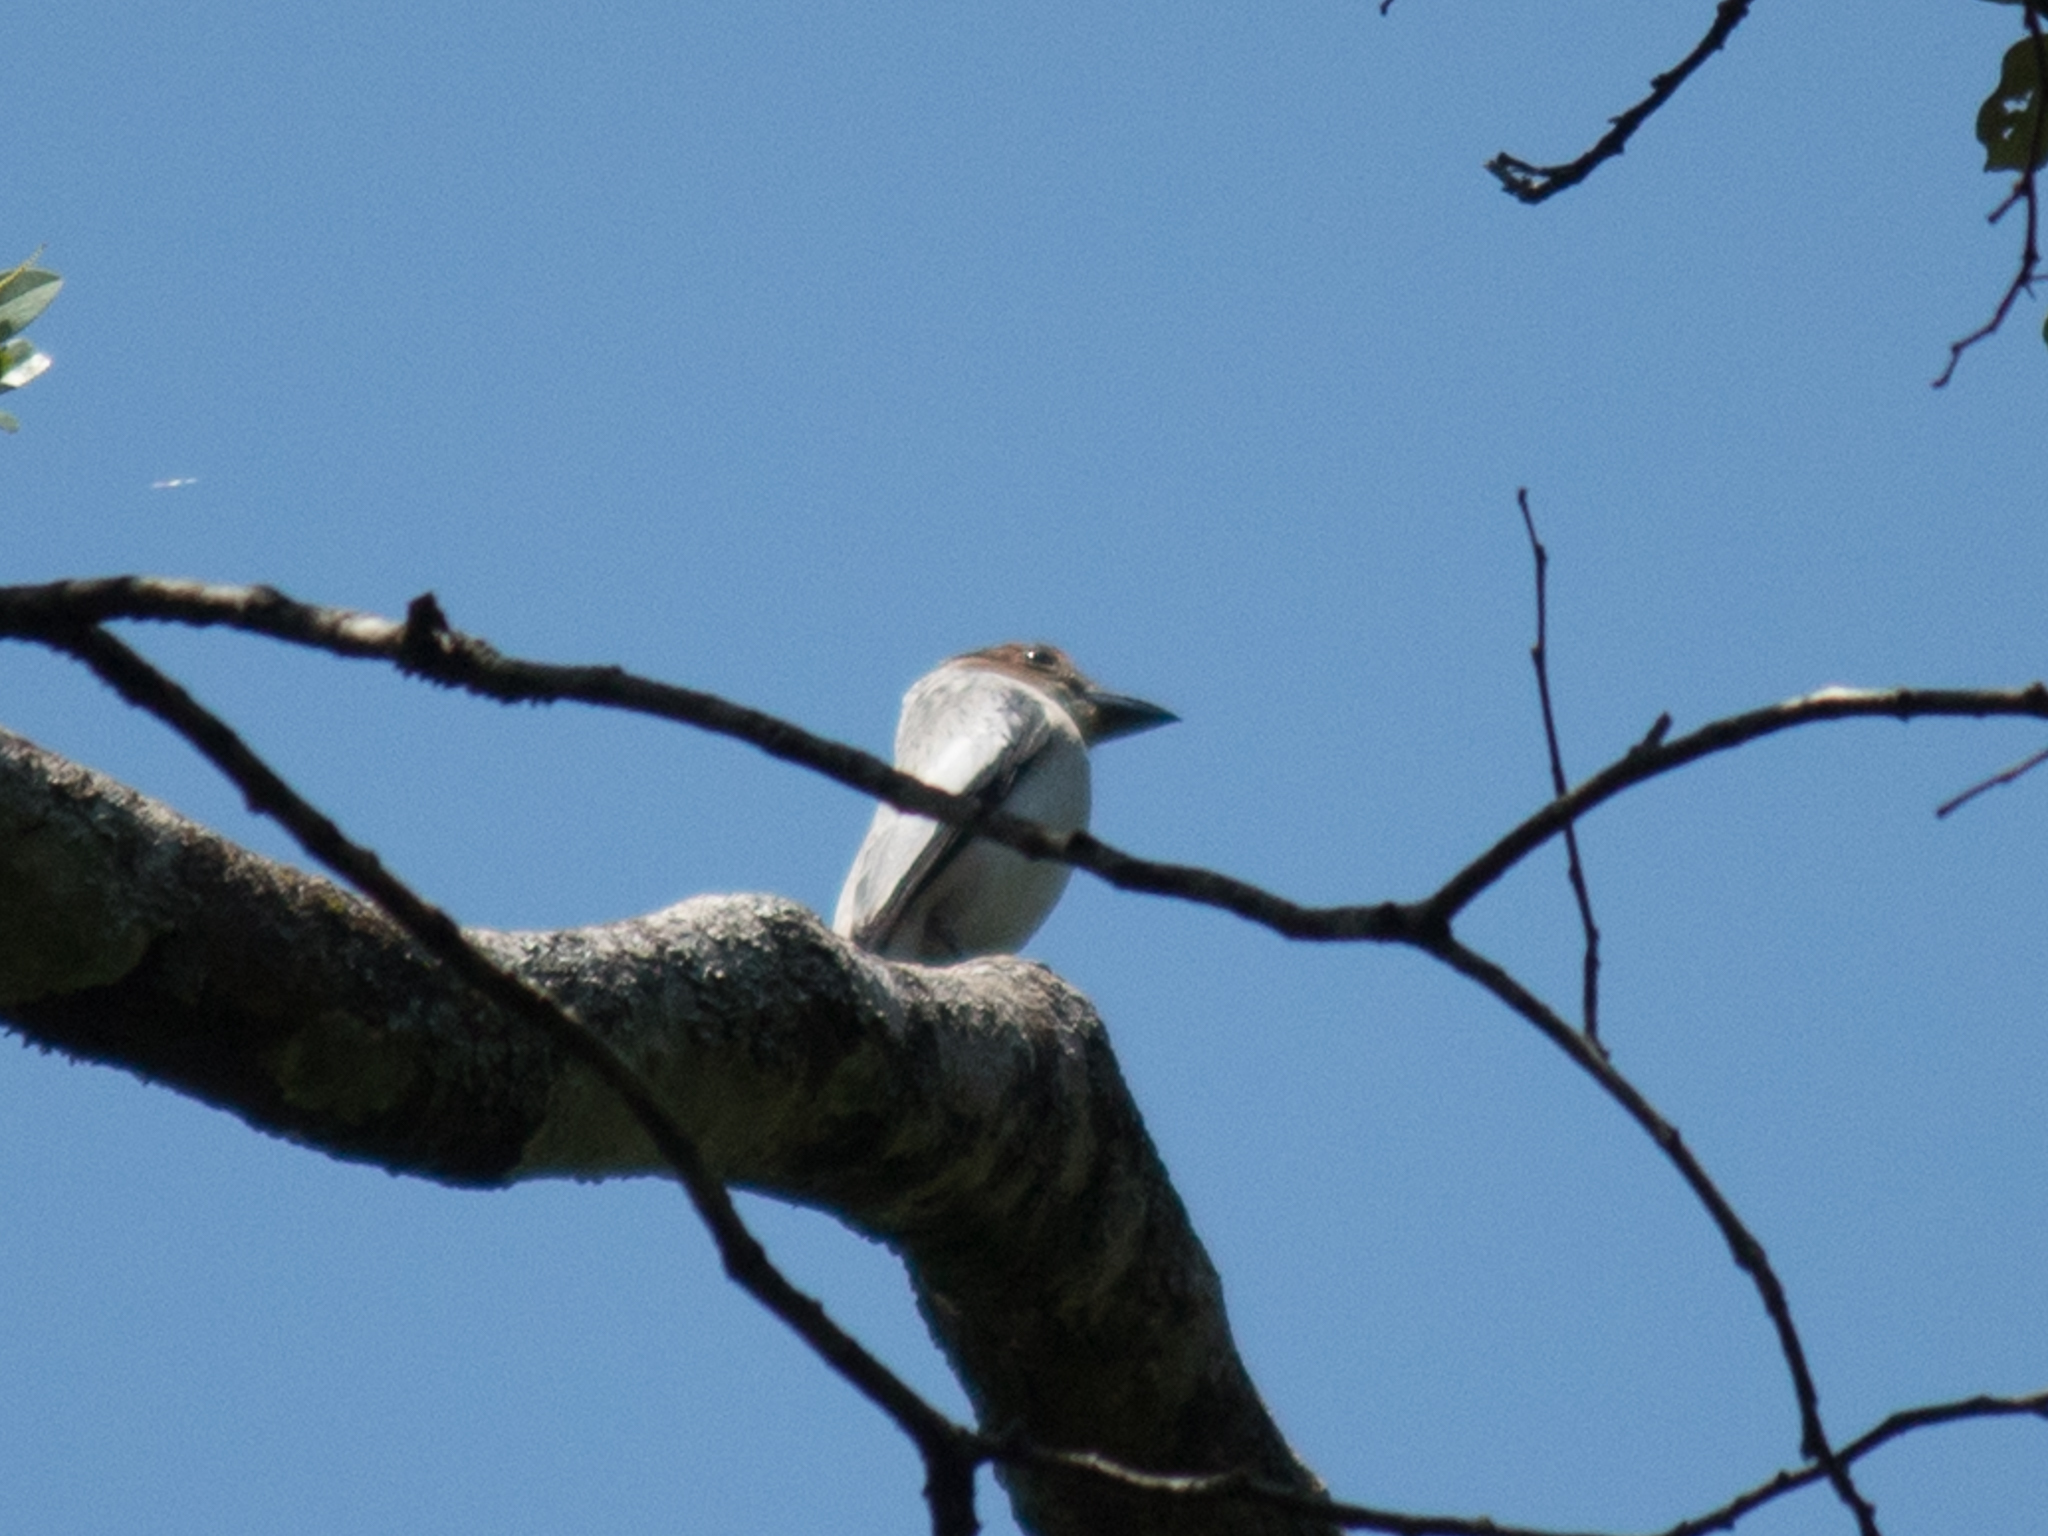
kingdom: Animalia
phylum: Chordata
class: Aves
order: Passeriformes
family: Cotingidae
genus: Tityra
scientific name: Tityra inquisitor
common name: Black-crowned tityra
